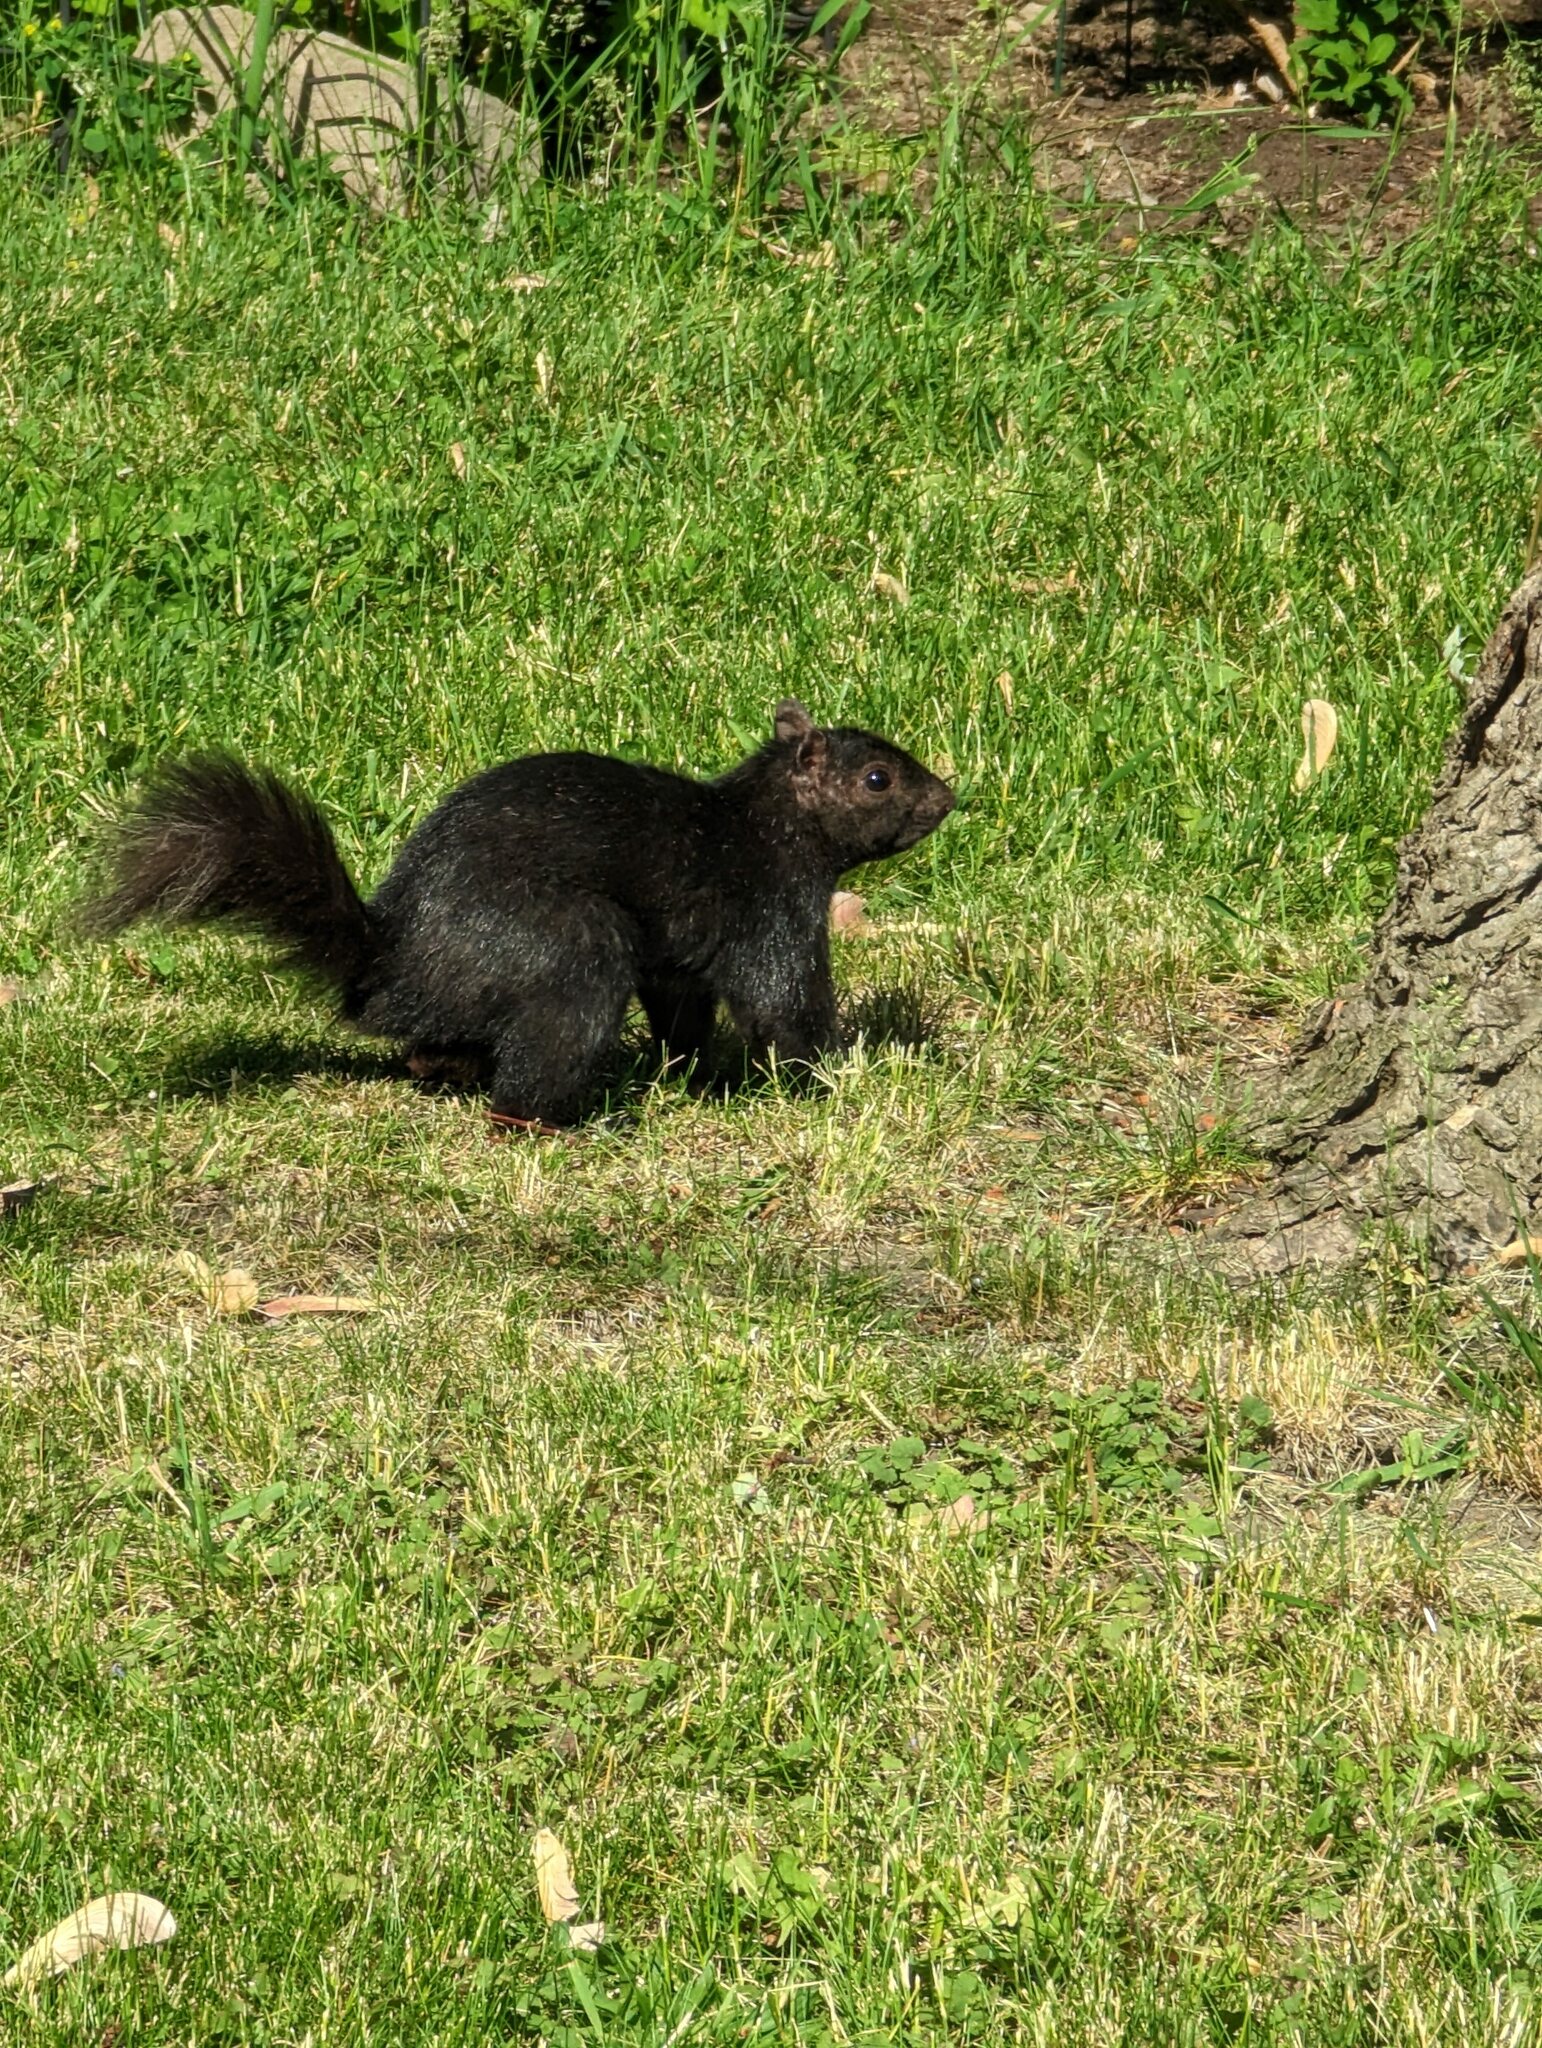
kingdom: Animalia
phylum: Chordata
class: Mammalia
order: Rodentia
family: Sciuridae
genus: Sciurus
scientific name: Sciurus carolinensis
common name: Eastern gray squirrel
